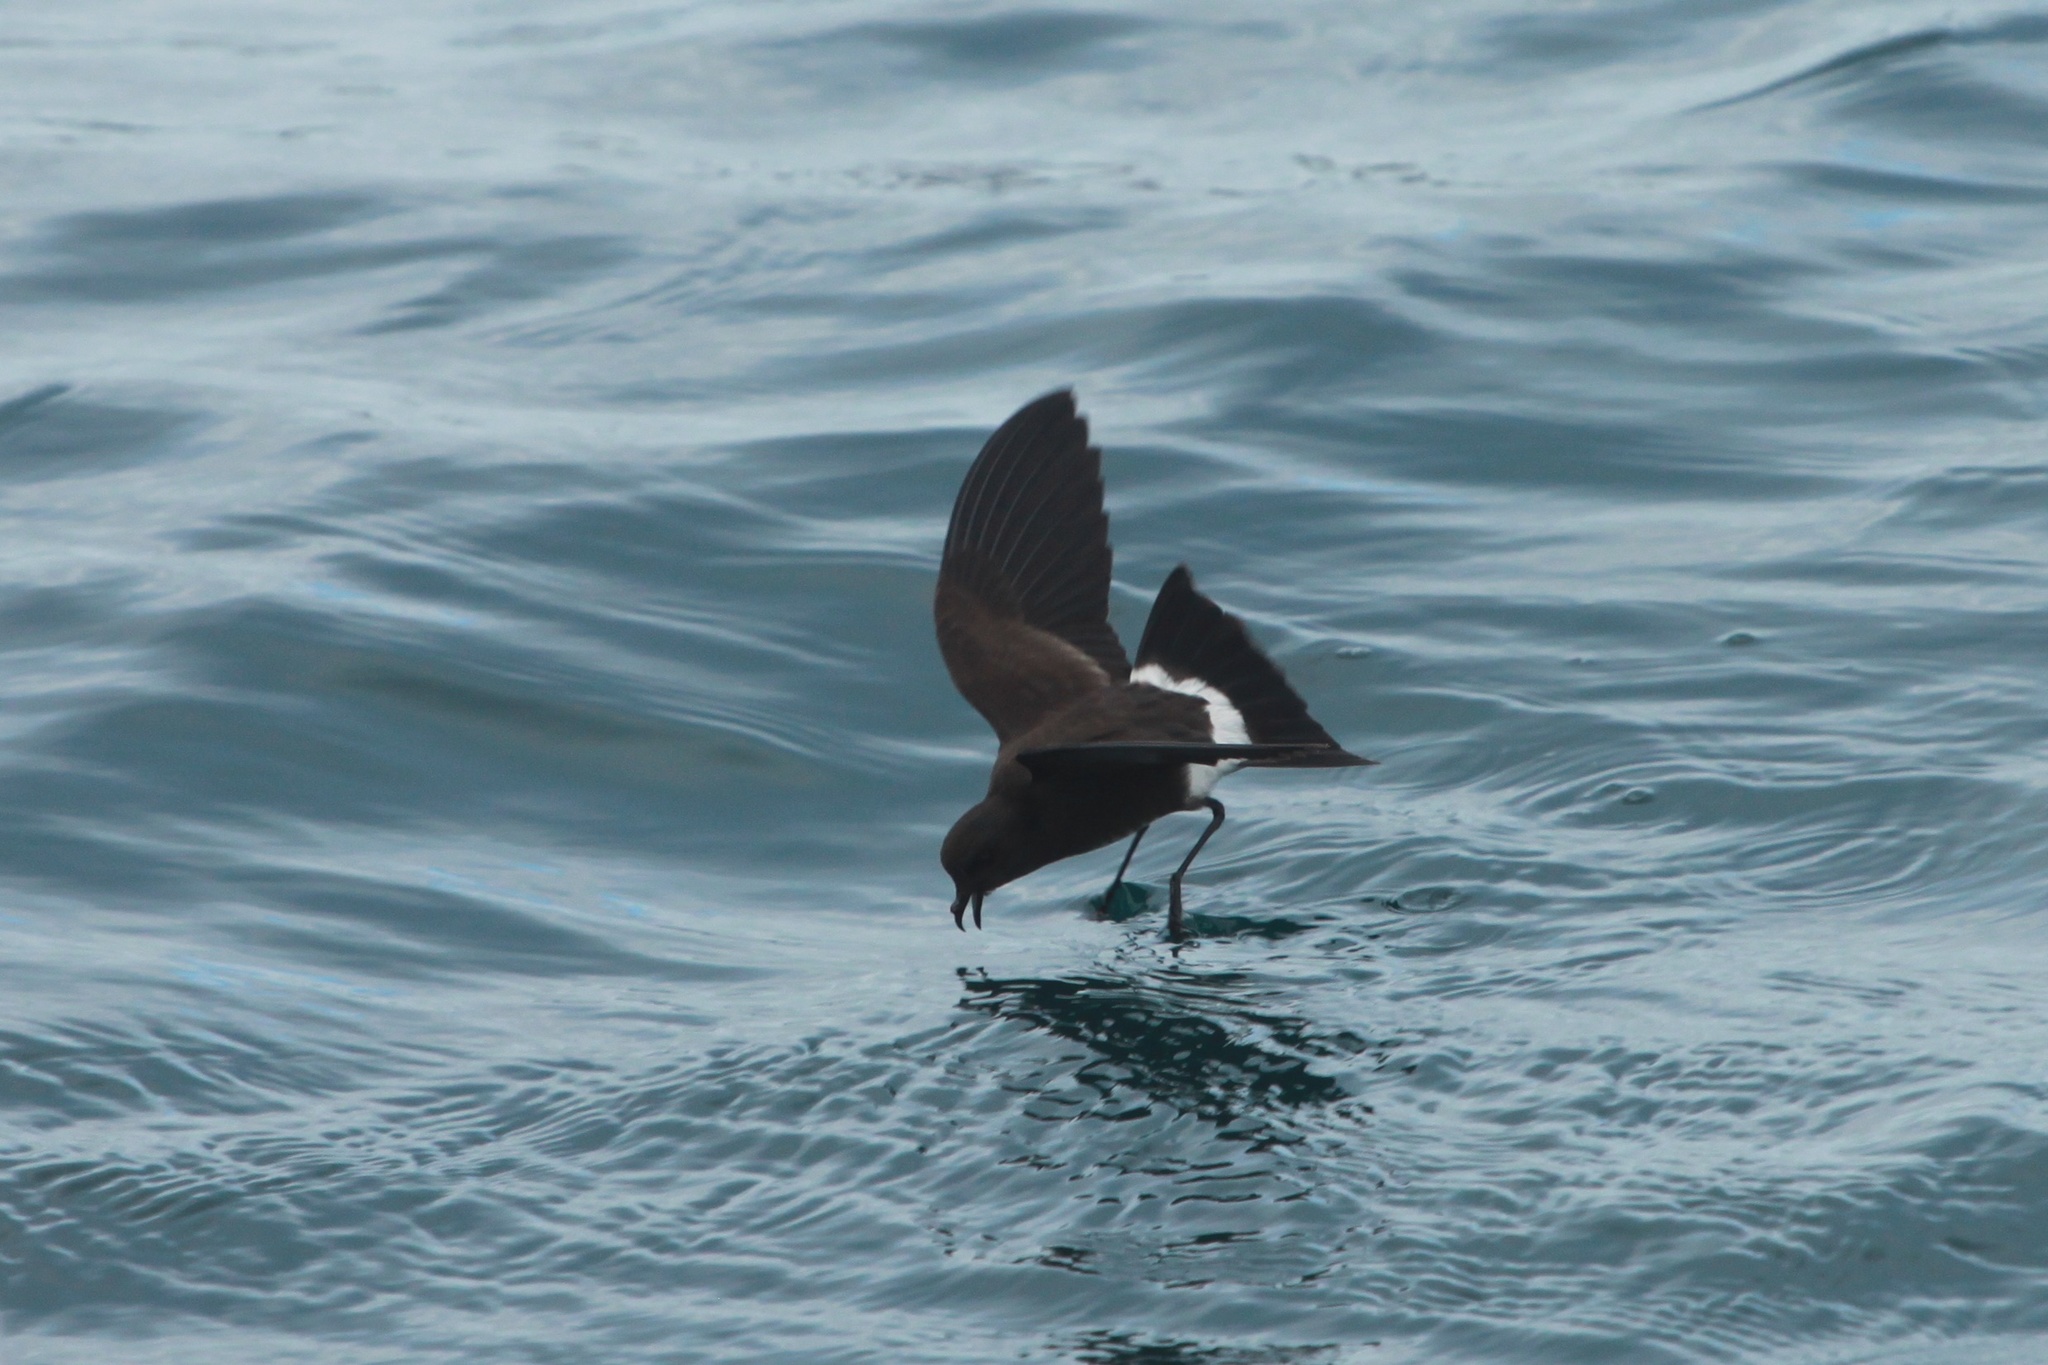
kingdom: Animalia
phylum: Chordata
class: Aves
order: Procellariiformes
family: Hydrobatidae
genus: Oceanites
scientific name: Oceanites gracilis
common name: Elliot's storm-petrel
